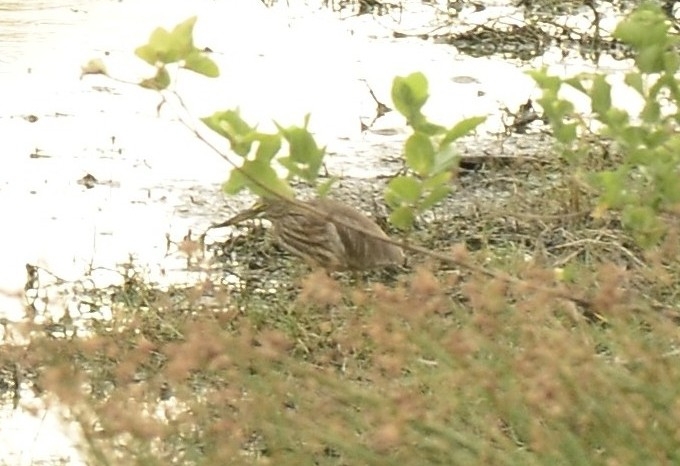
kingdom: Animalia
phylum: Chordata
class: Aves
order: Pelecaniformes
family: Ardeidae
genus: Ardeola
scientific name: Ardeola grayii
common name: Indian pond heron
